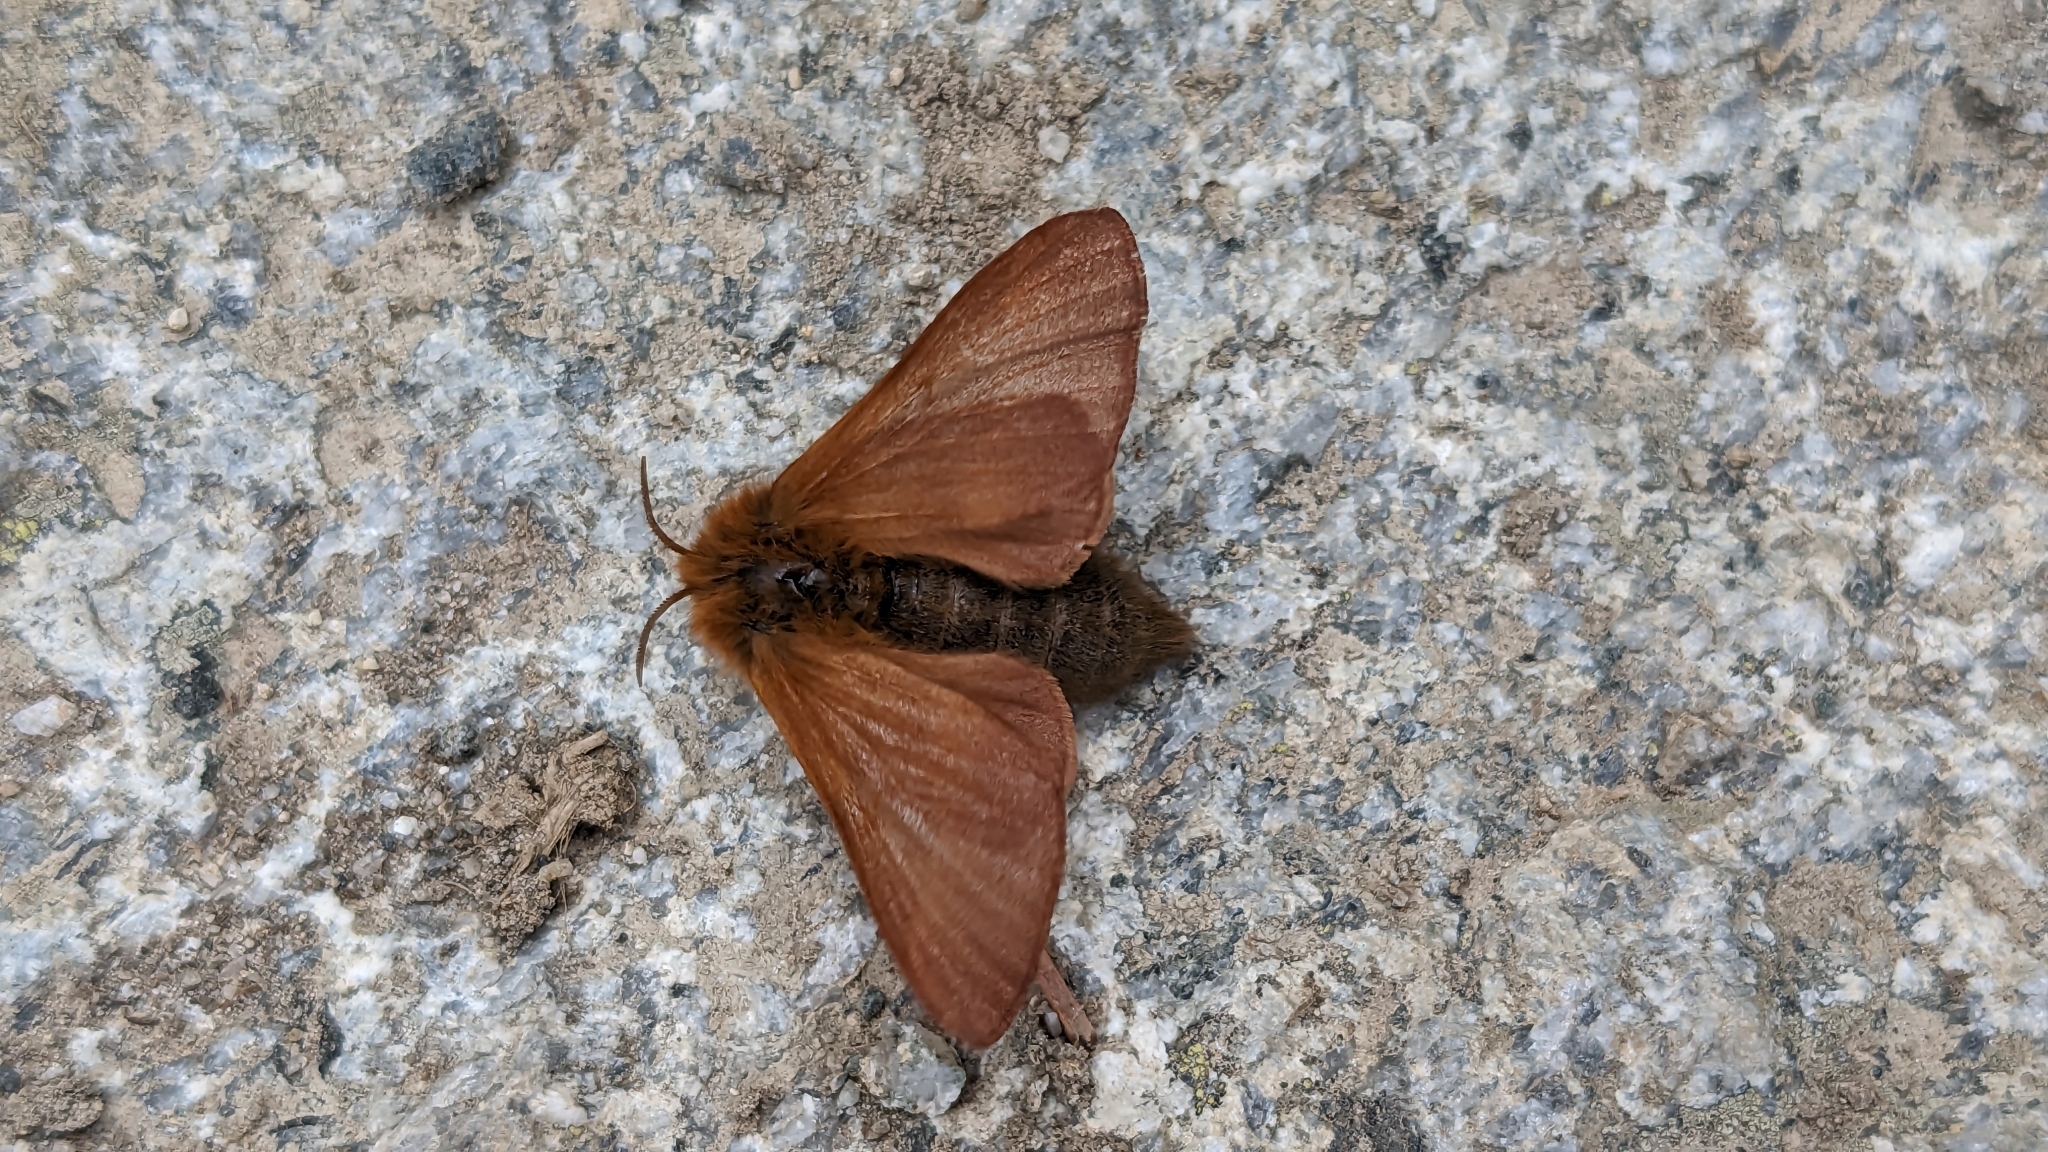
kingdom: Animalia
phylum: Arthropoda
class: Insecta
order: Lepidoptera
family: Lasiocampidae
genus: Malacosoma
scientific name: Malacosoma alpicola
